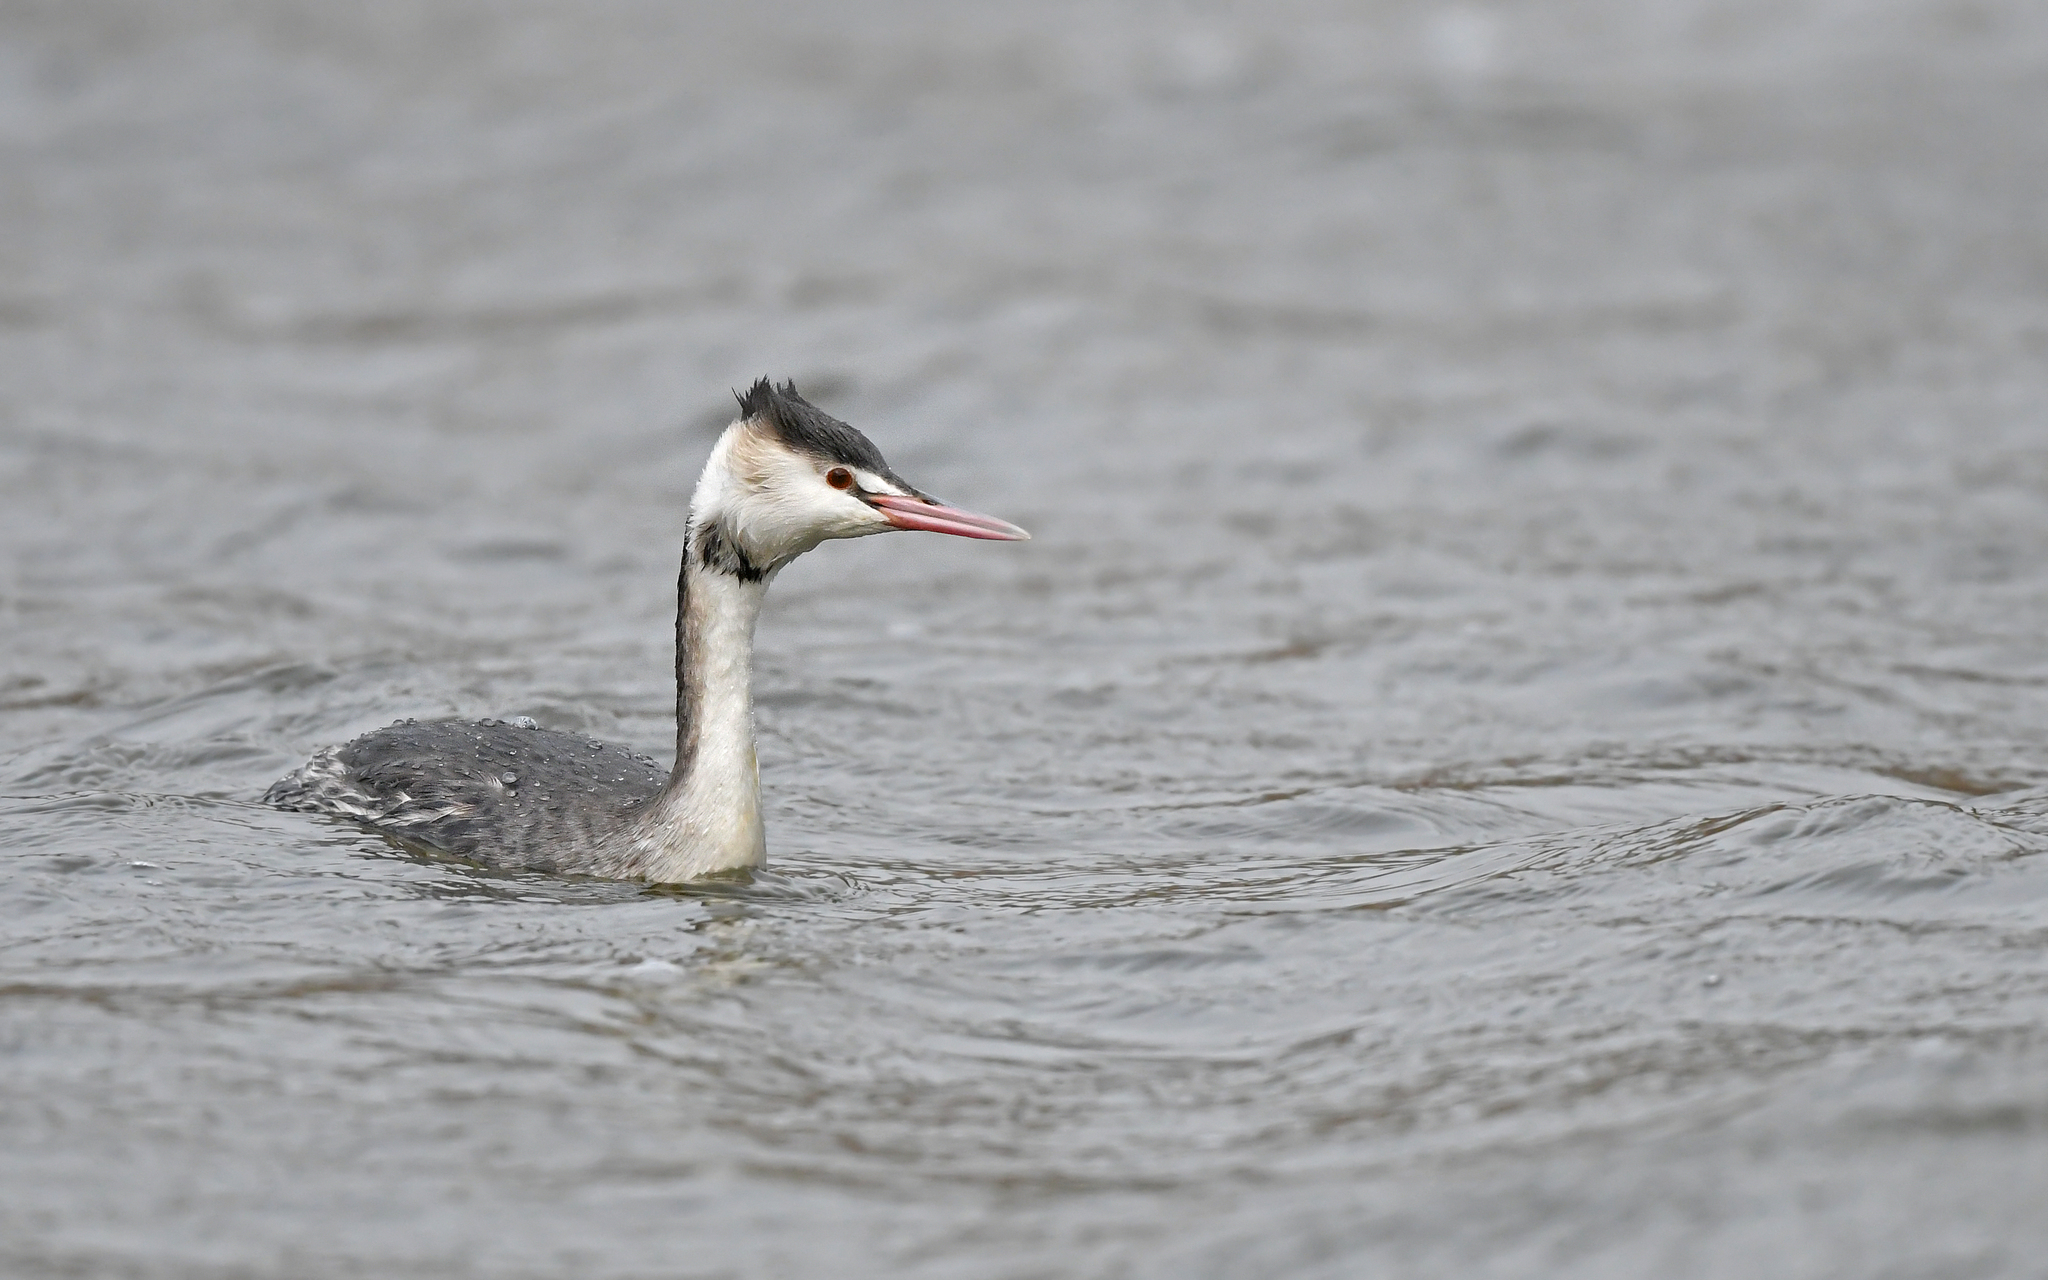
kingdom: Animalia
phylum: Chordata
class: Aves
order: Podicipediformes
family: Podicipedidae
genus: Podiceps
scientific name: Podiceps cristatus
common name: Great crested grebe
